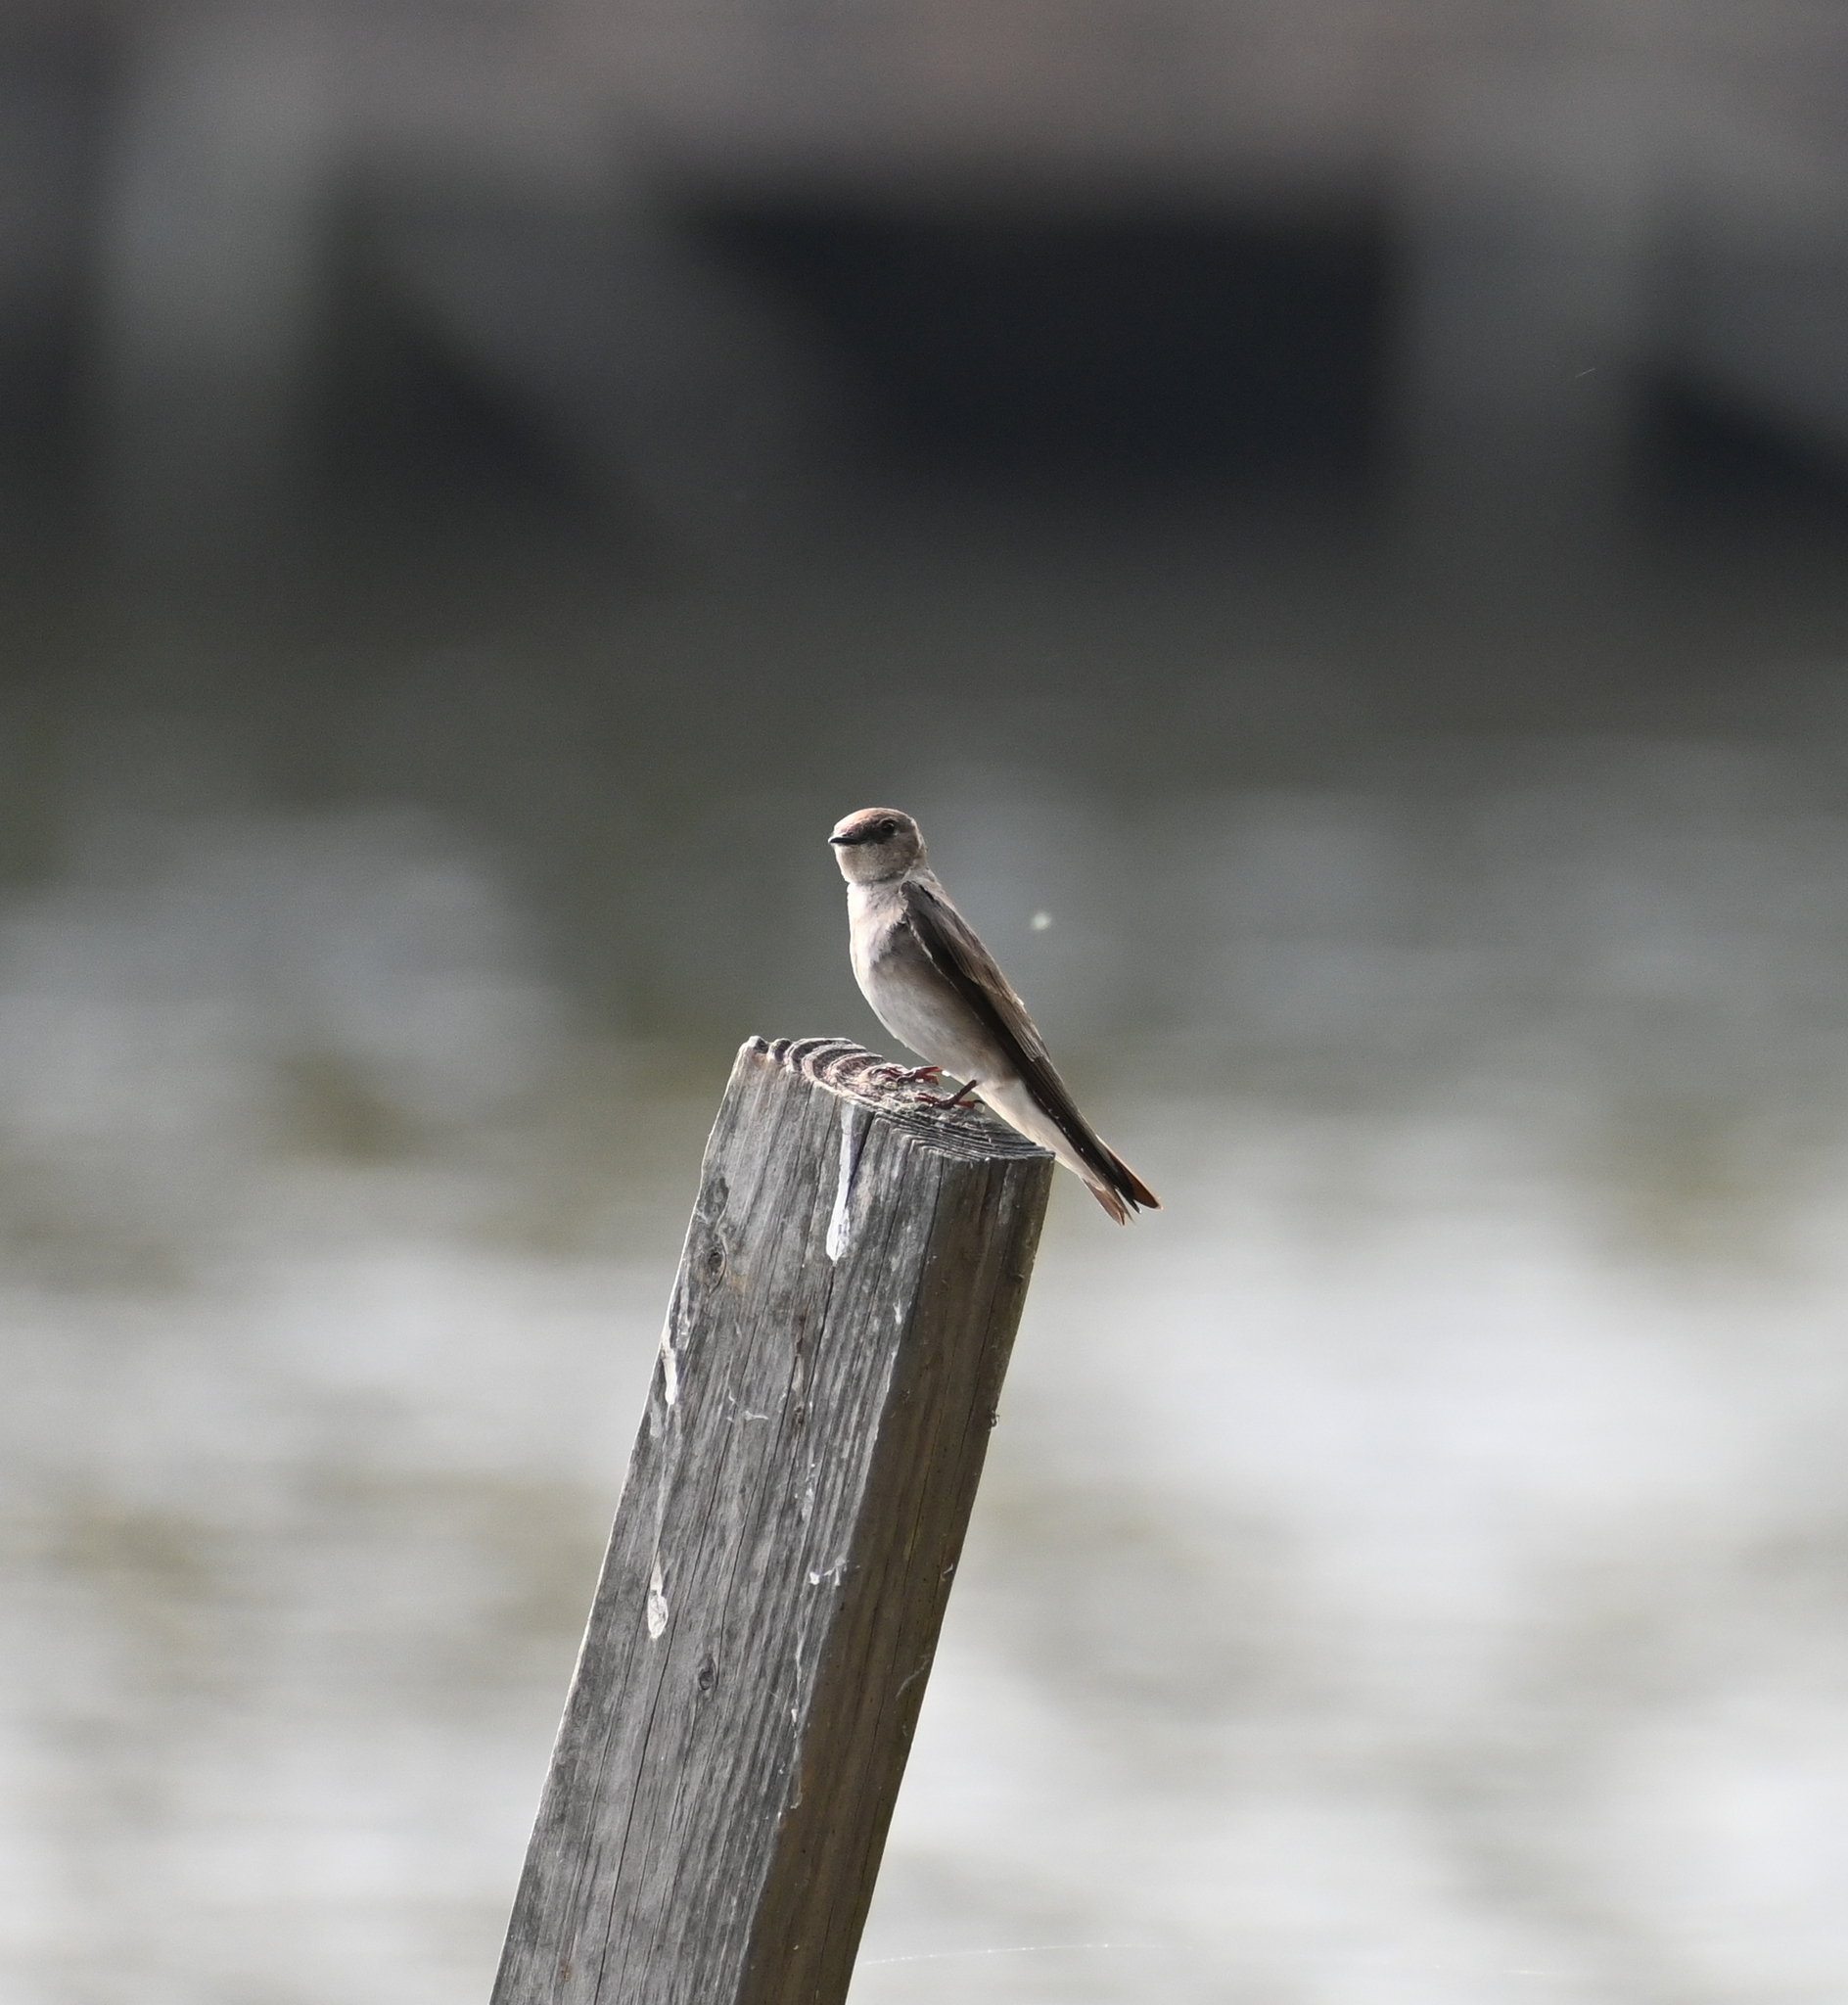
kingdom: Animalia
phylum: Chordata
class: Aves
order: Passeriformes
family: Hirundinidae
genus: Stelgidopteryx
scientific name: Stelgidopteryx serripennis
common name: Northern rough-winged swallow
